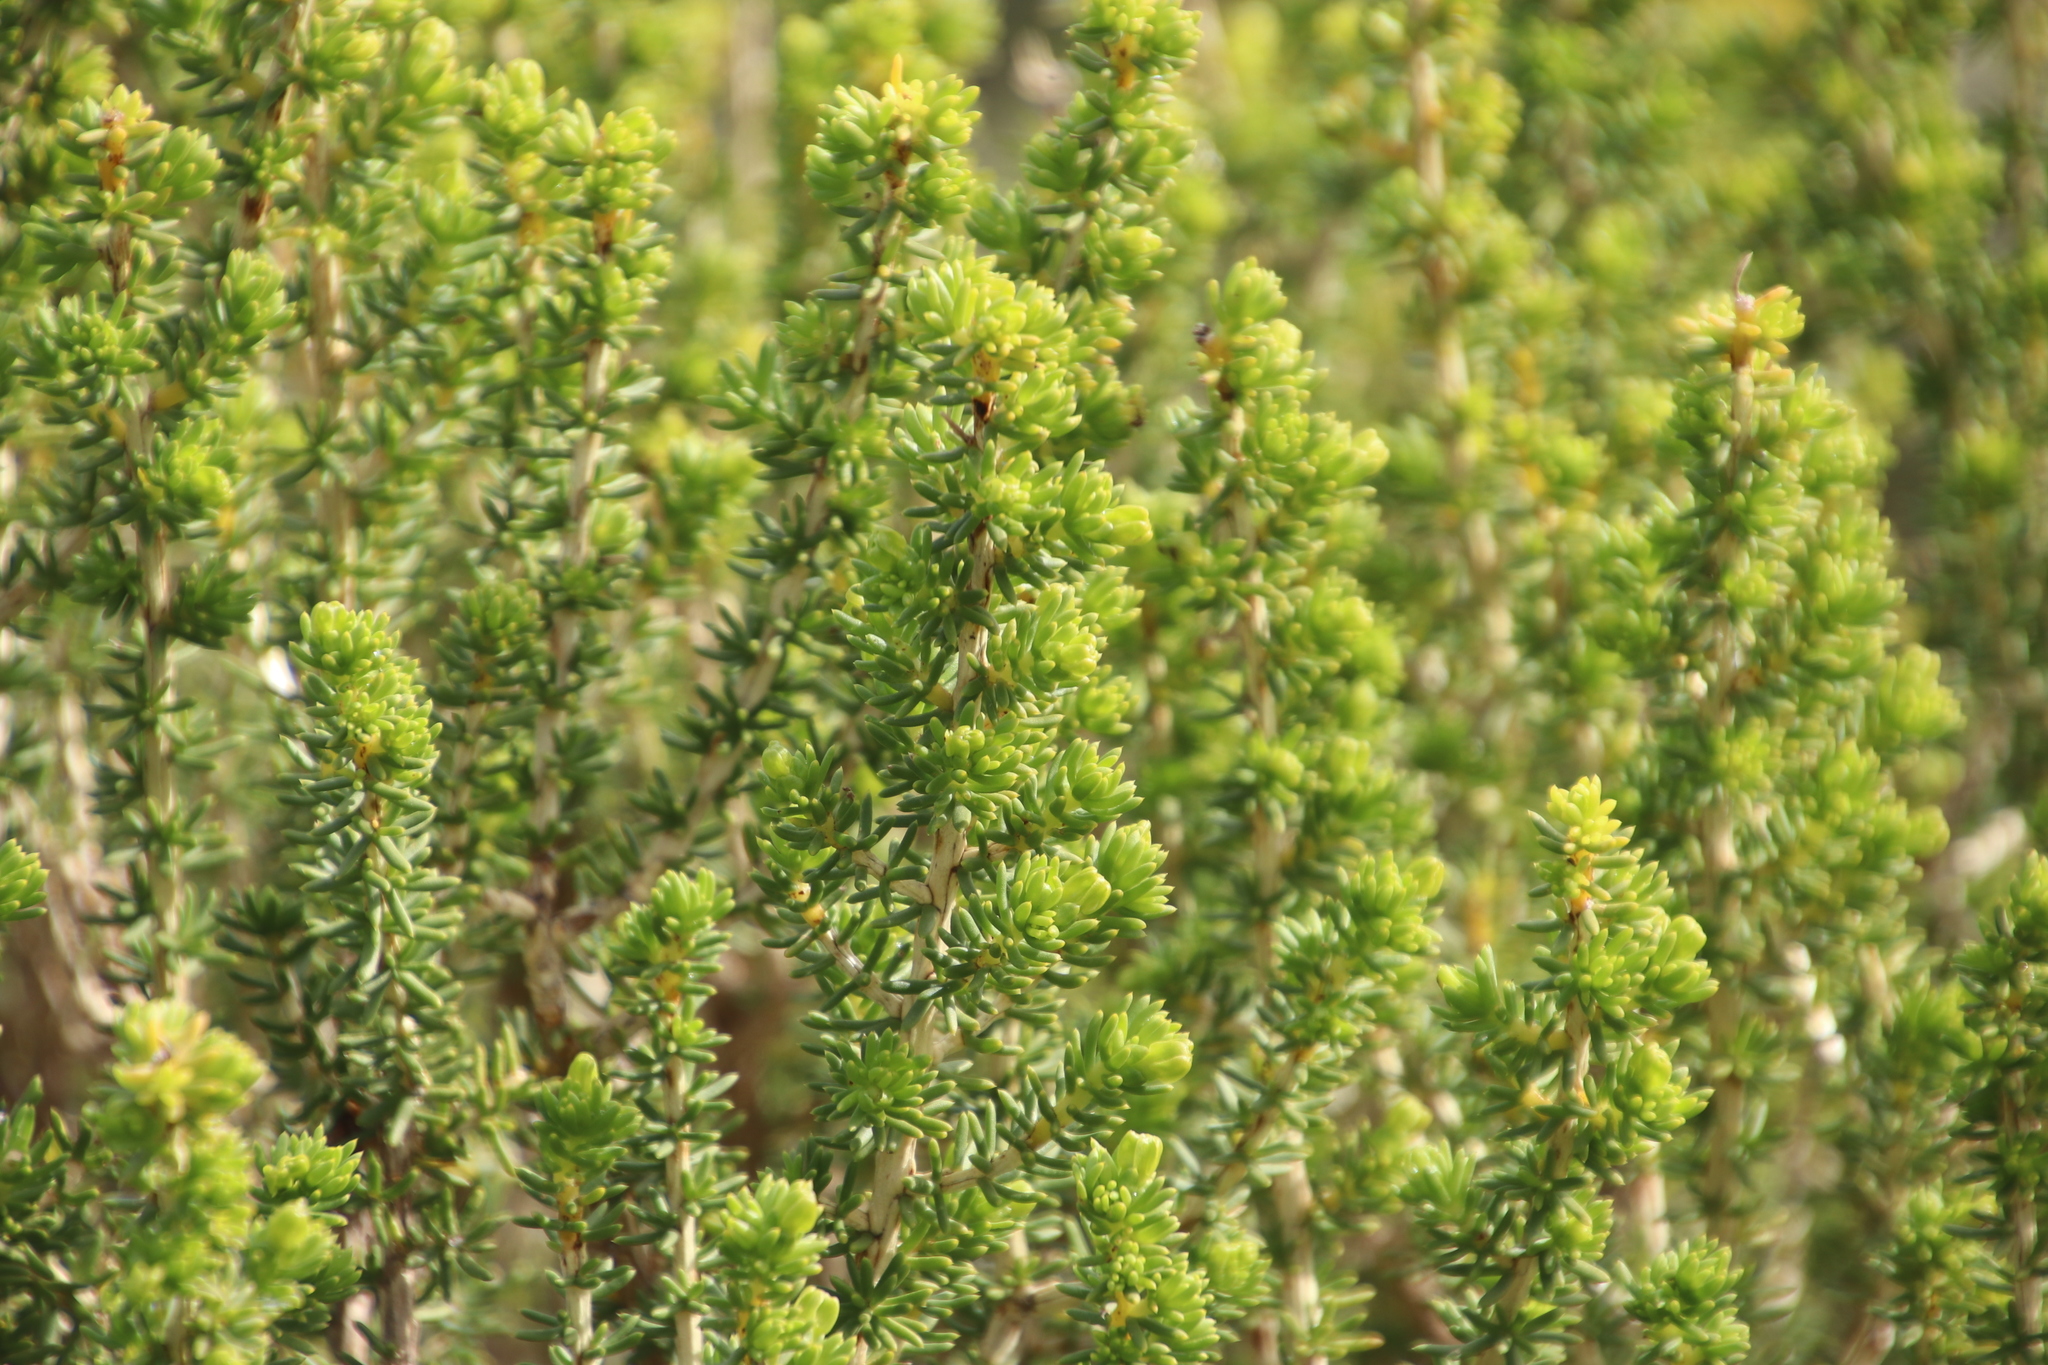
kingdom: Plantae
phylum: Tracheophyta
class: Magnoliopsida
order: Fabales
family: Fabaceae
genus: Aspalathus
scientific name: Aspalathus carnosa
